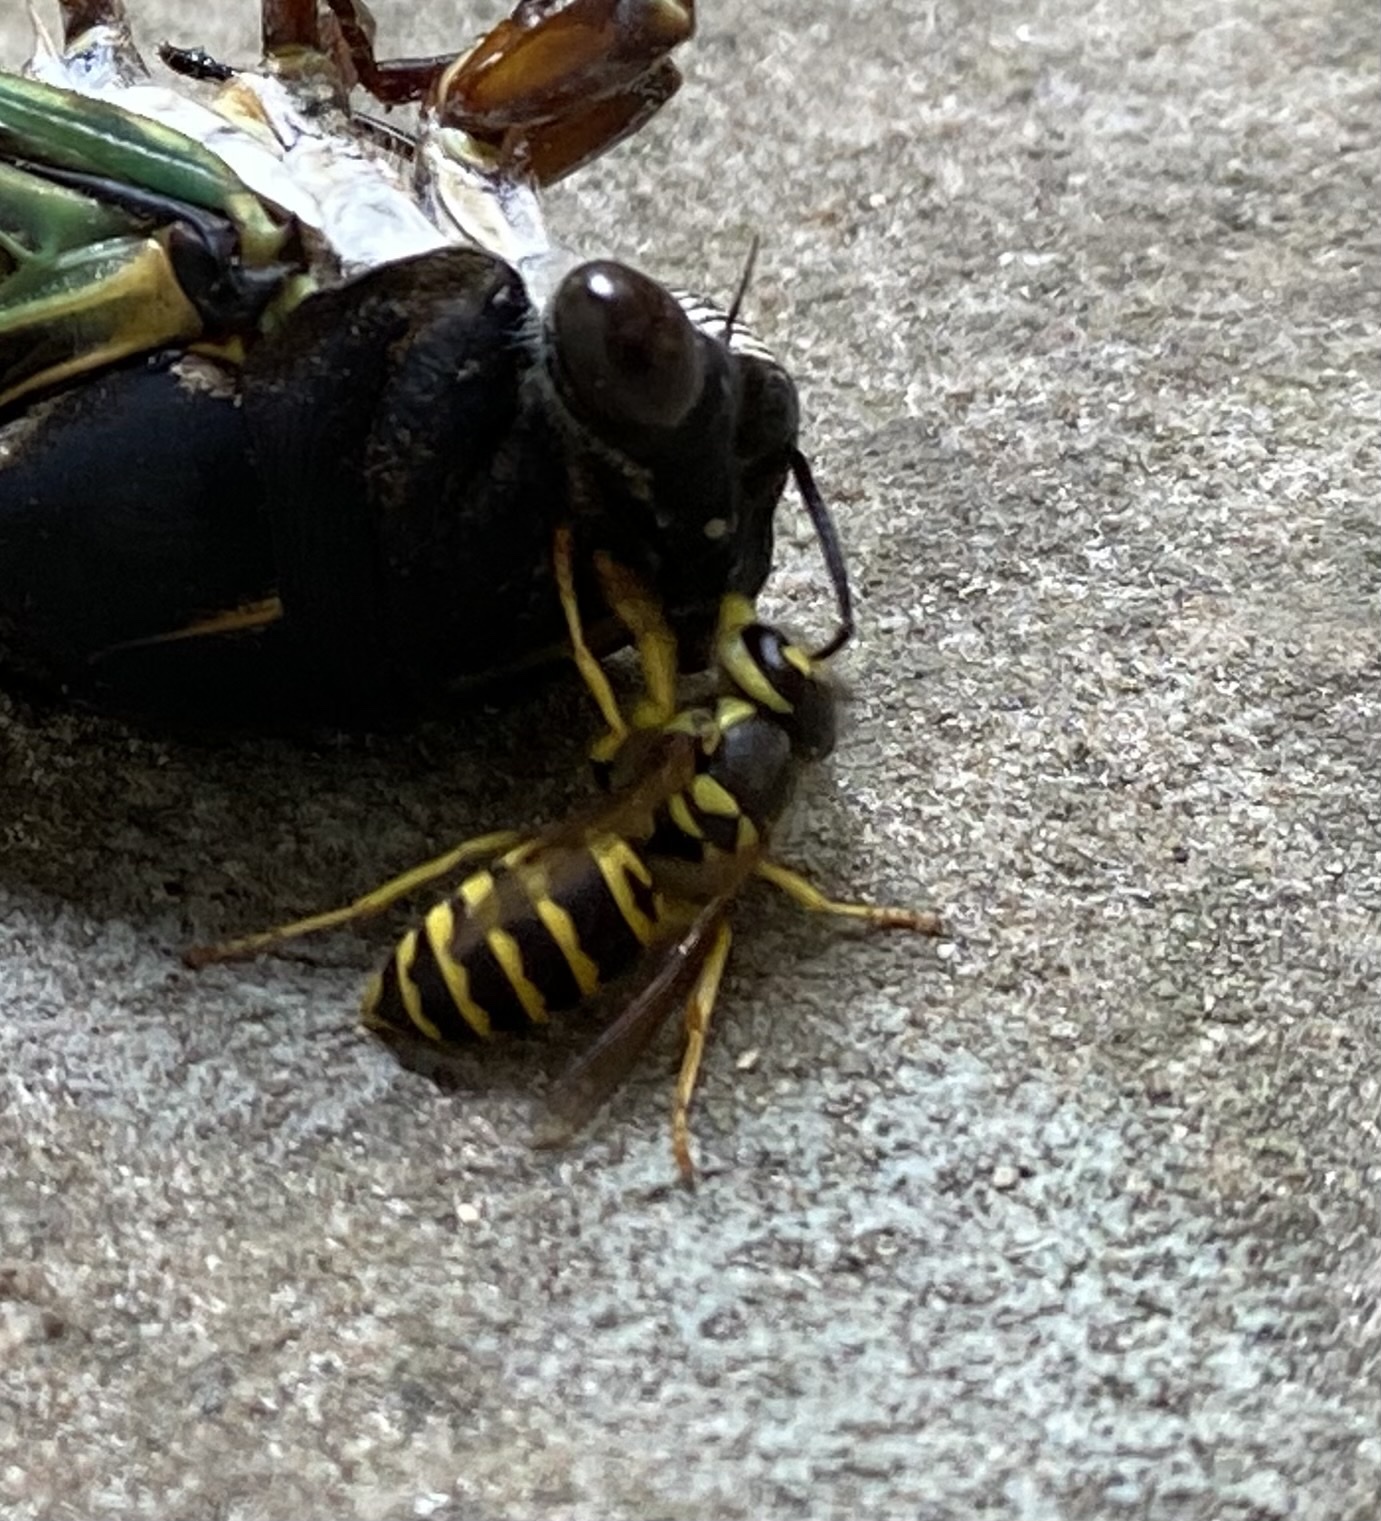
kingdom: Animalia
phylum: Arthropoda
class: Insecta
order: Hymenoptera
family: Vespidae
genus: Vespula
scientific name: Vespula maculifrons
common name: Eastern yellowjacket
